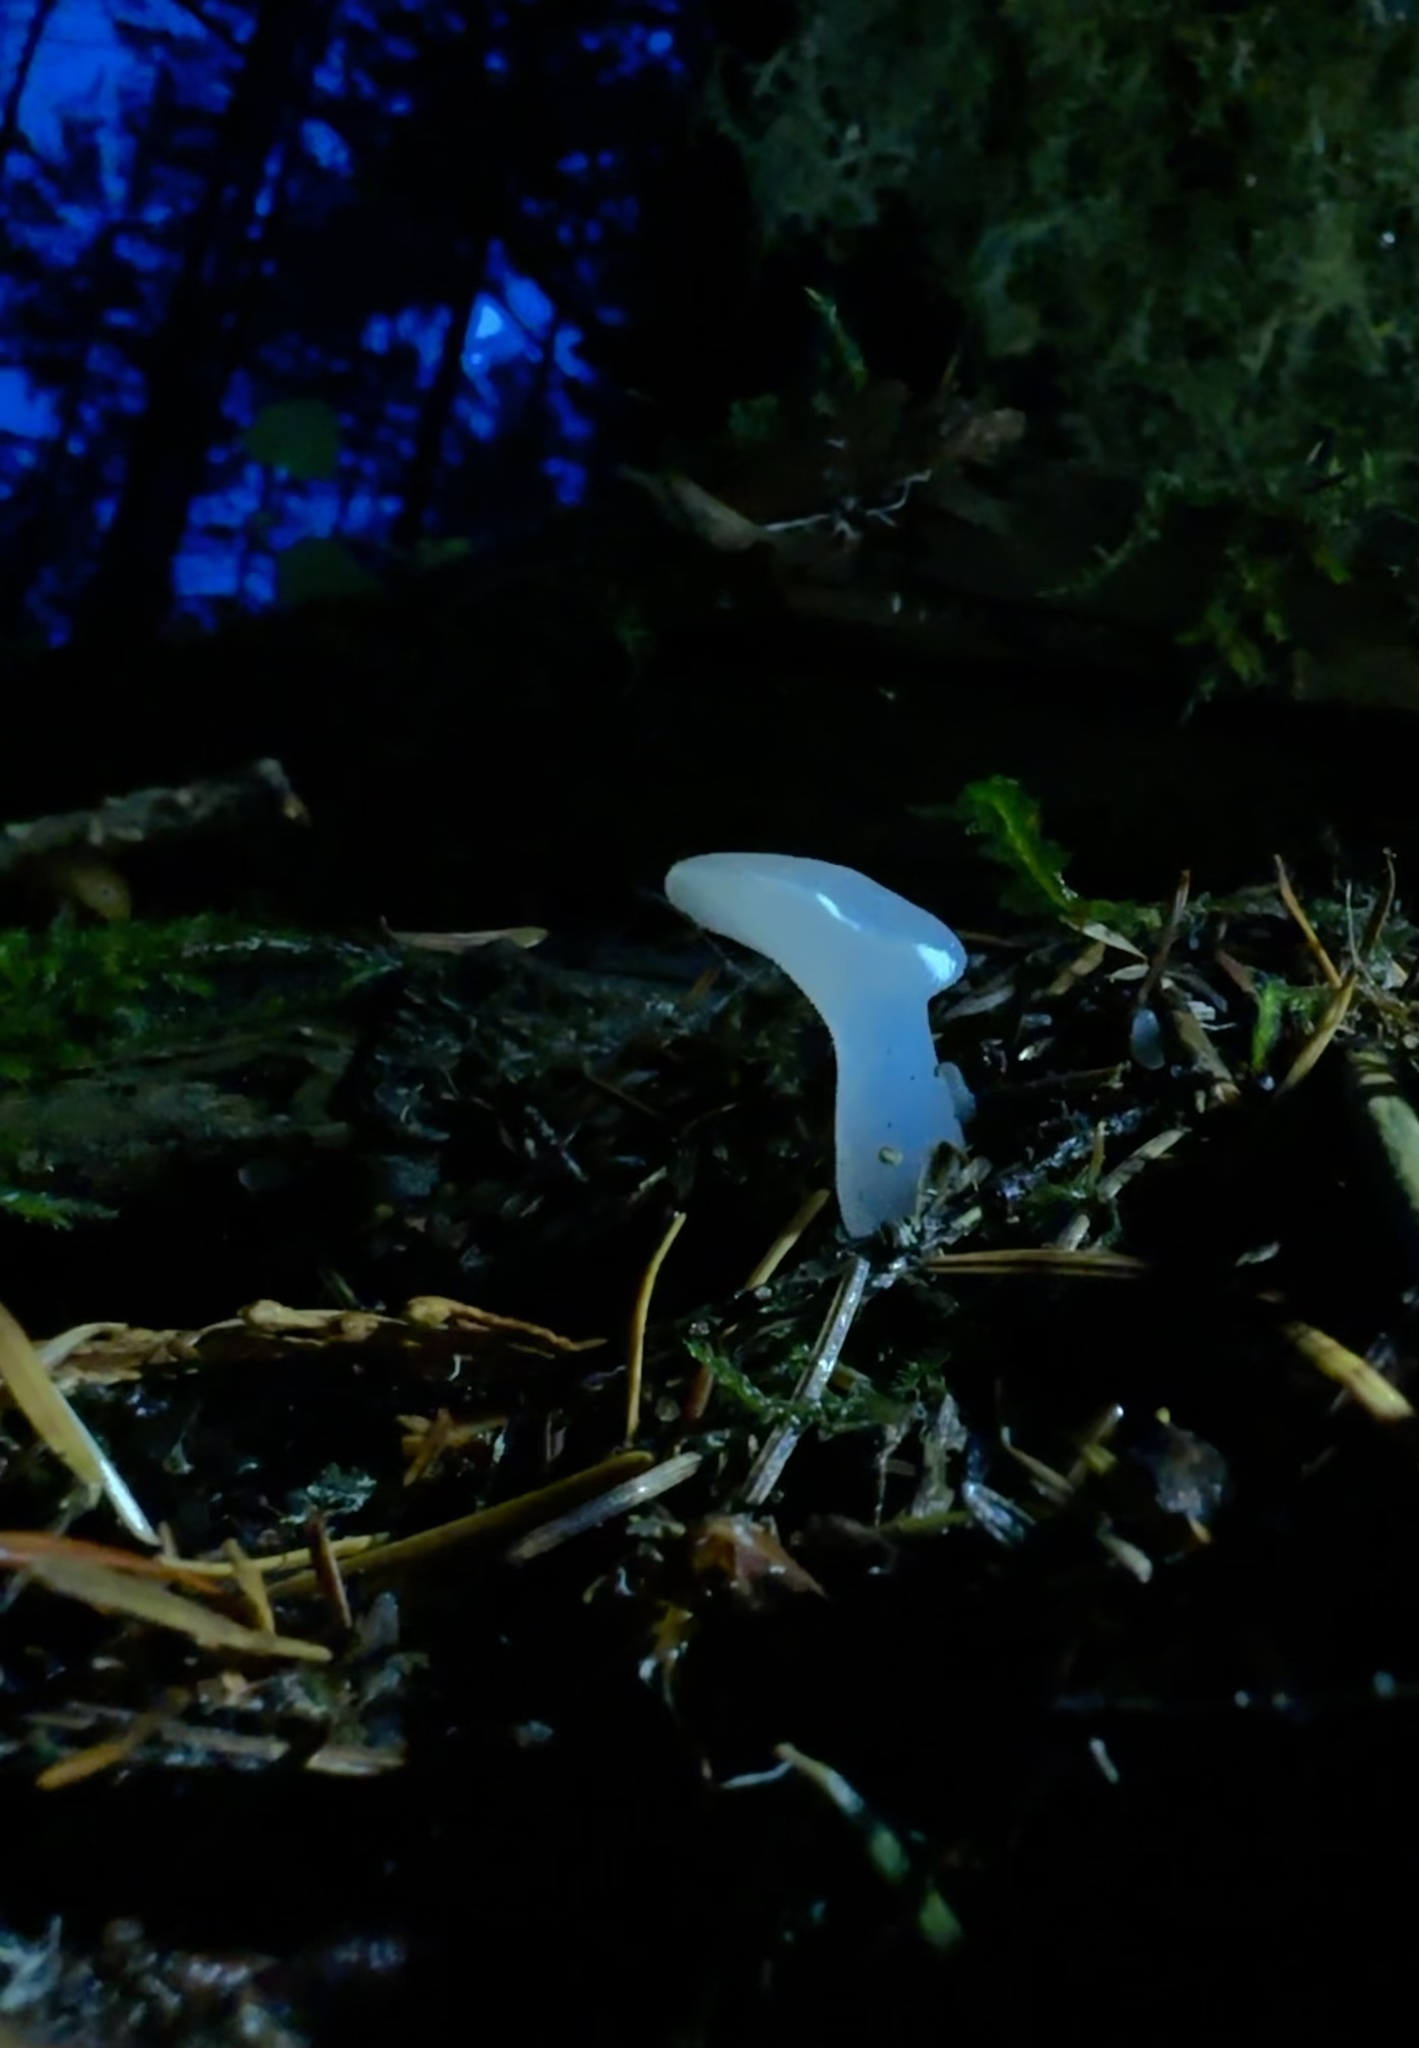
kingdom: Fungi
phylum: Basidiomycota
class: Agaricomycetes
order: Auriculariales
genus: Pseudohydnum
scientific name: Pseudohydnum gelatinosum
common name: Jelly tongue
